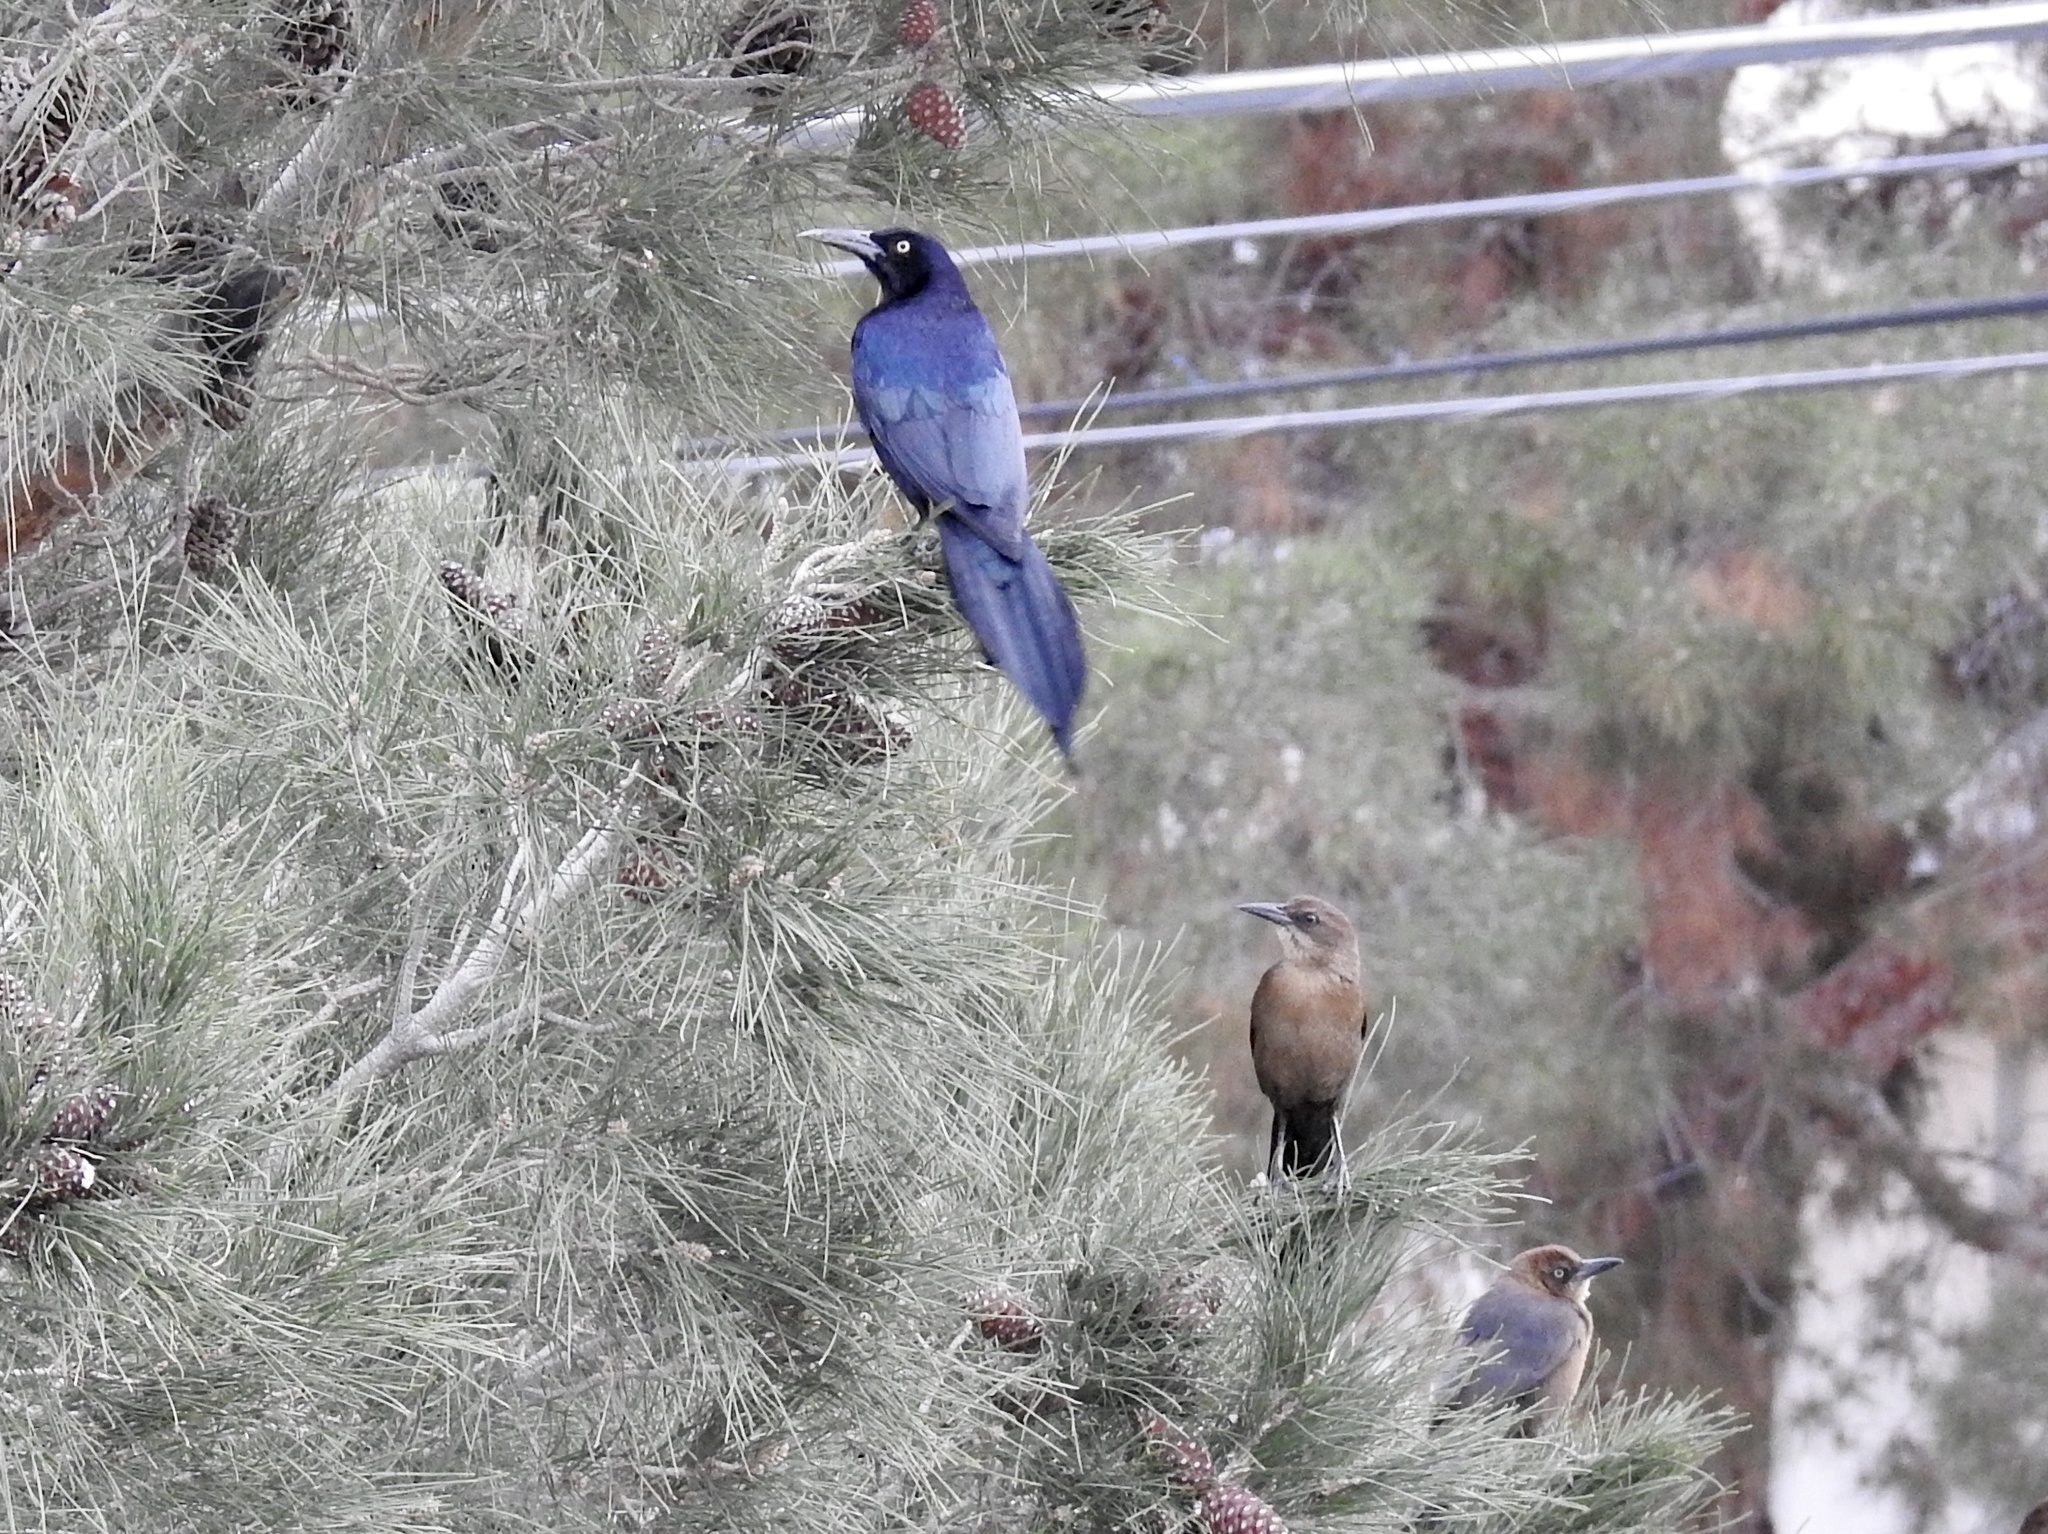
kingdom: Animalia
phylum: Chordata
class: Aves
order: Passeriformes
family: Icteridae
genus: Quiscalus
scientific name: Quiscalus mexicanus
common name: Great-tailed grackle
